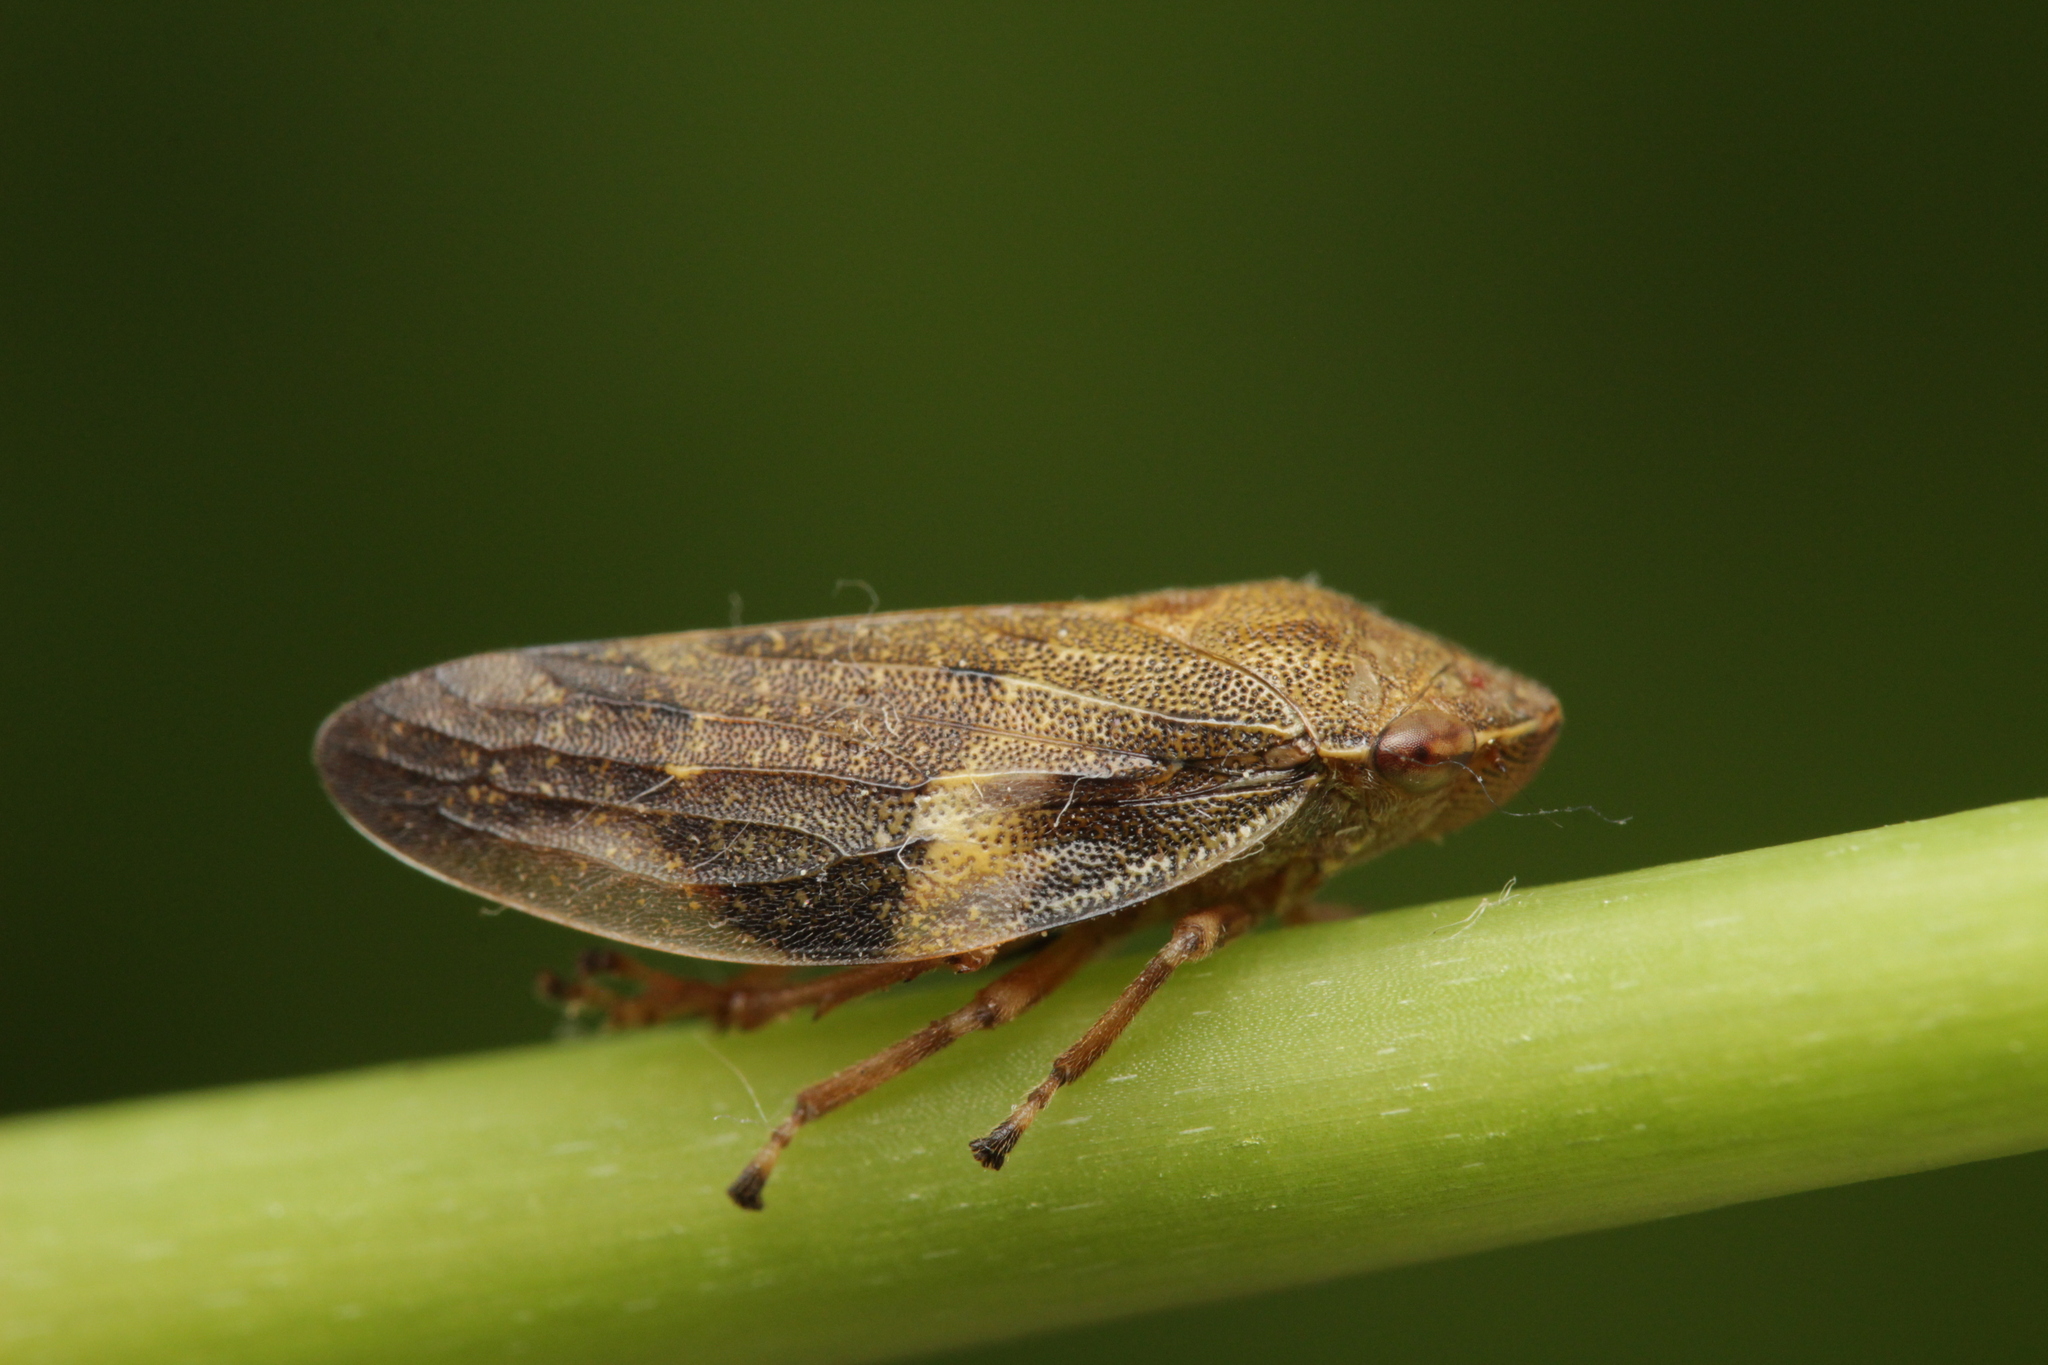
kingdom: Animalia
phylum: Arthropoda
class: Insecta
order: Hemiptera
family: Aphrophoridae
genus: Aphrophora
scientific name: Aphrophora alni
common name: European alder spittlebug
